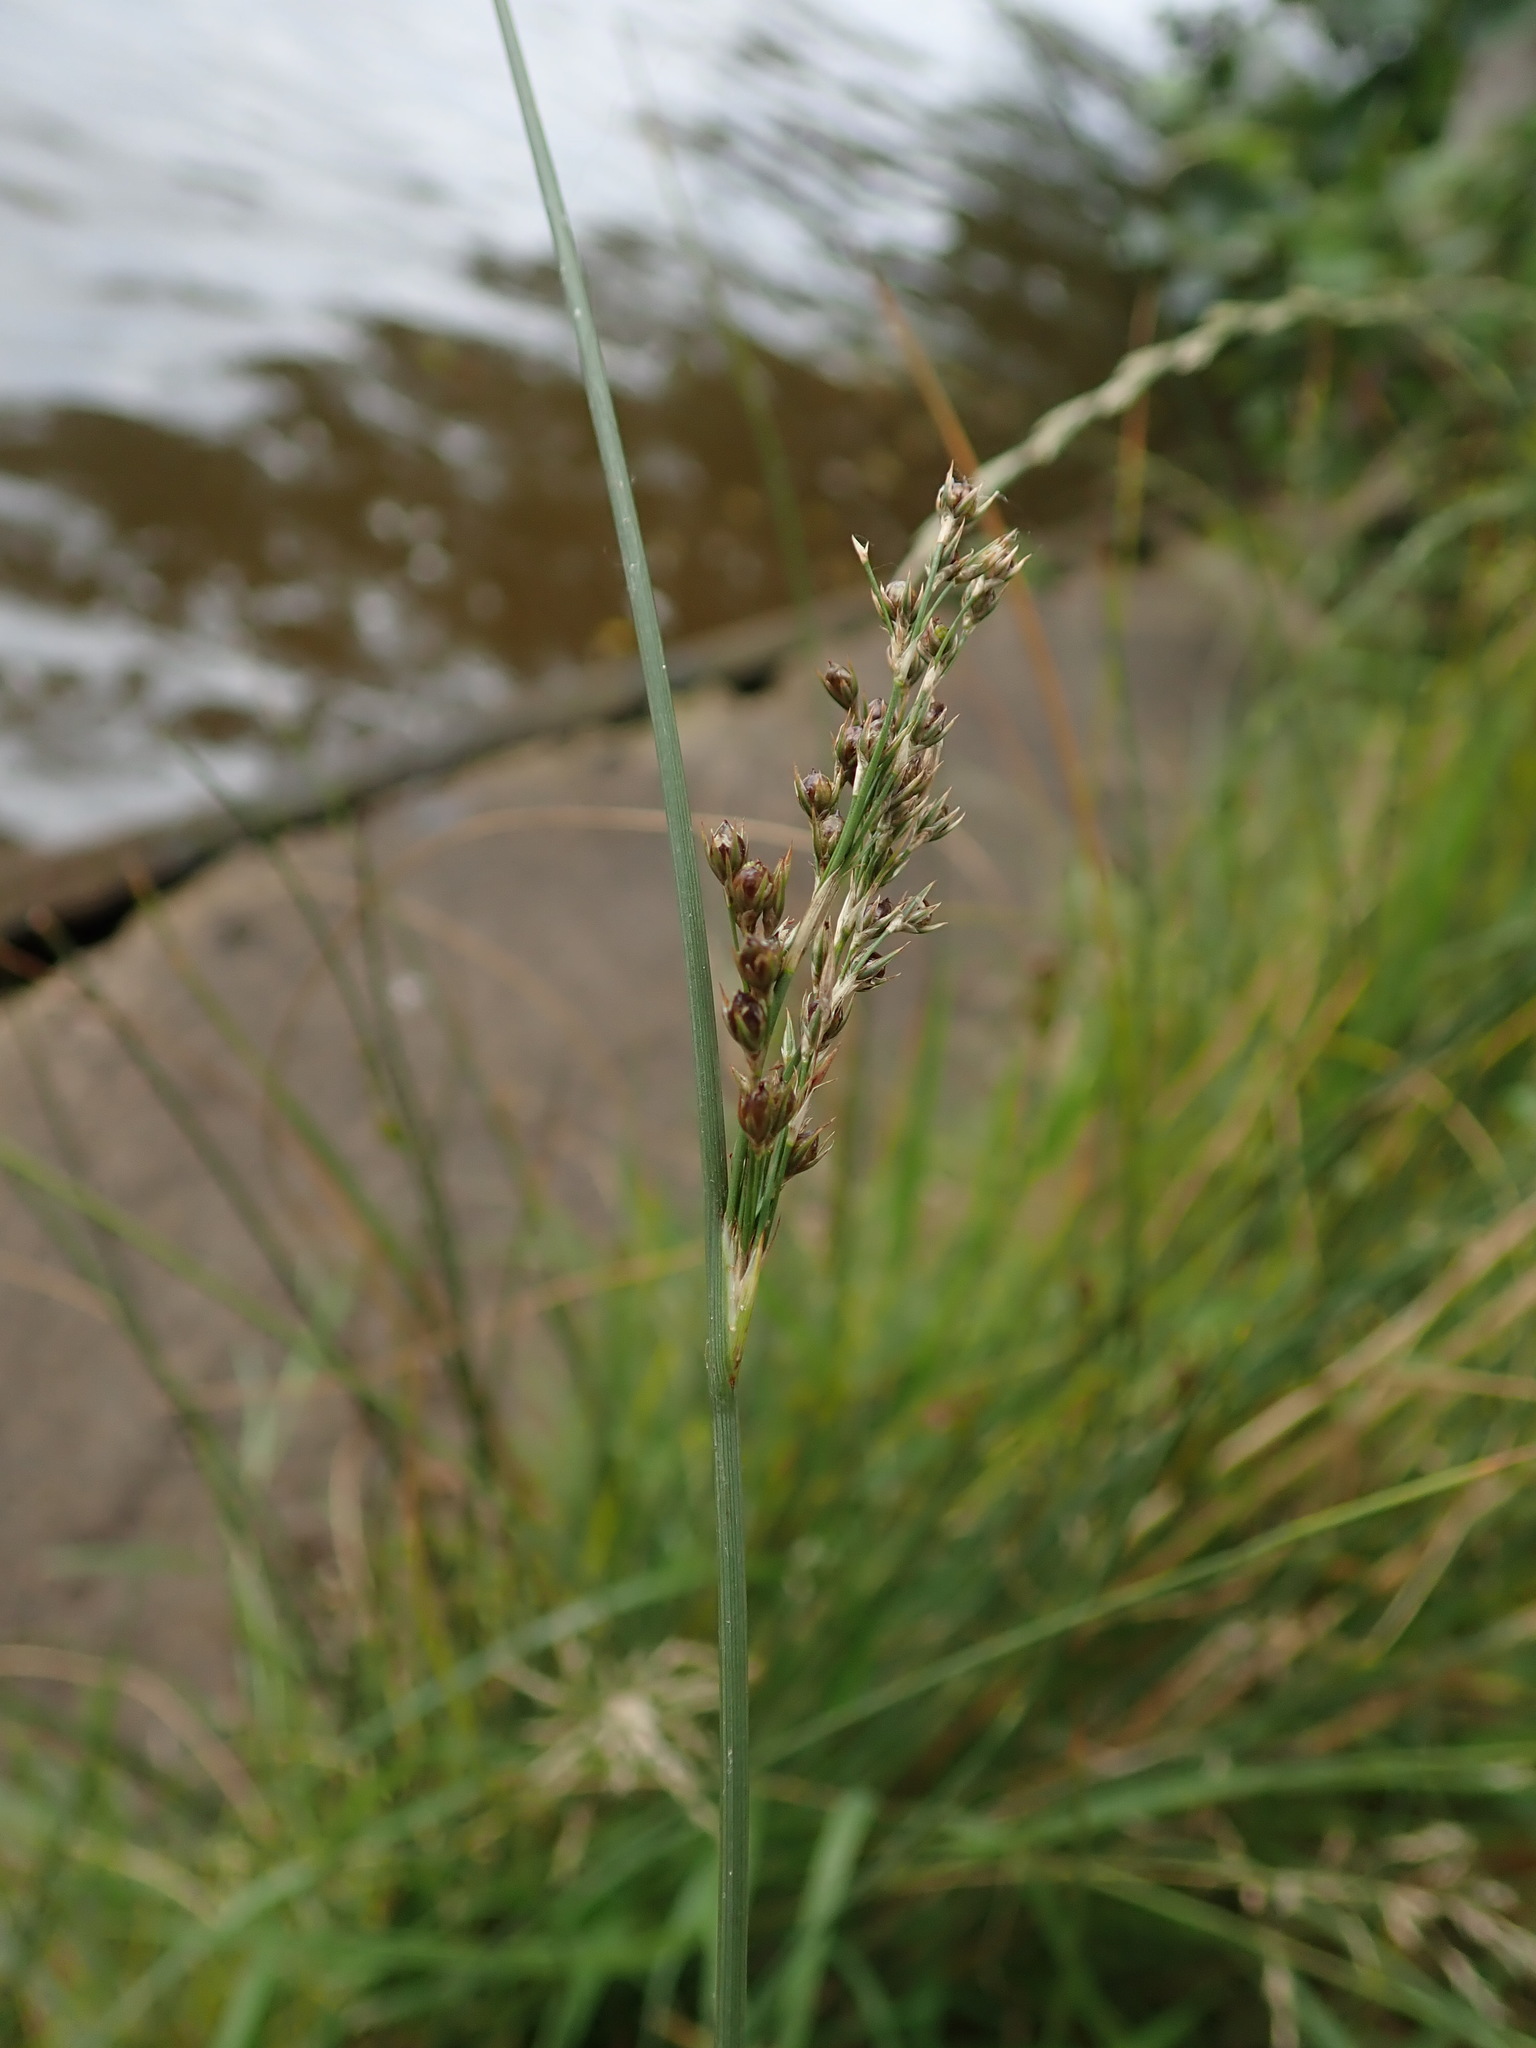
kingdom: Plantae
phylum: Tracheophyta
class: Liliopsida
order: Poales
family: Juncaceae
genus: Juncus
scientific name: Juncus inflexus
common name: Hard rush
